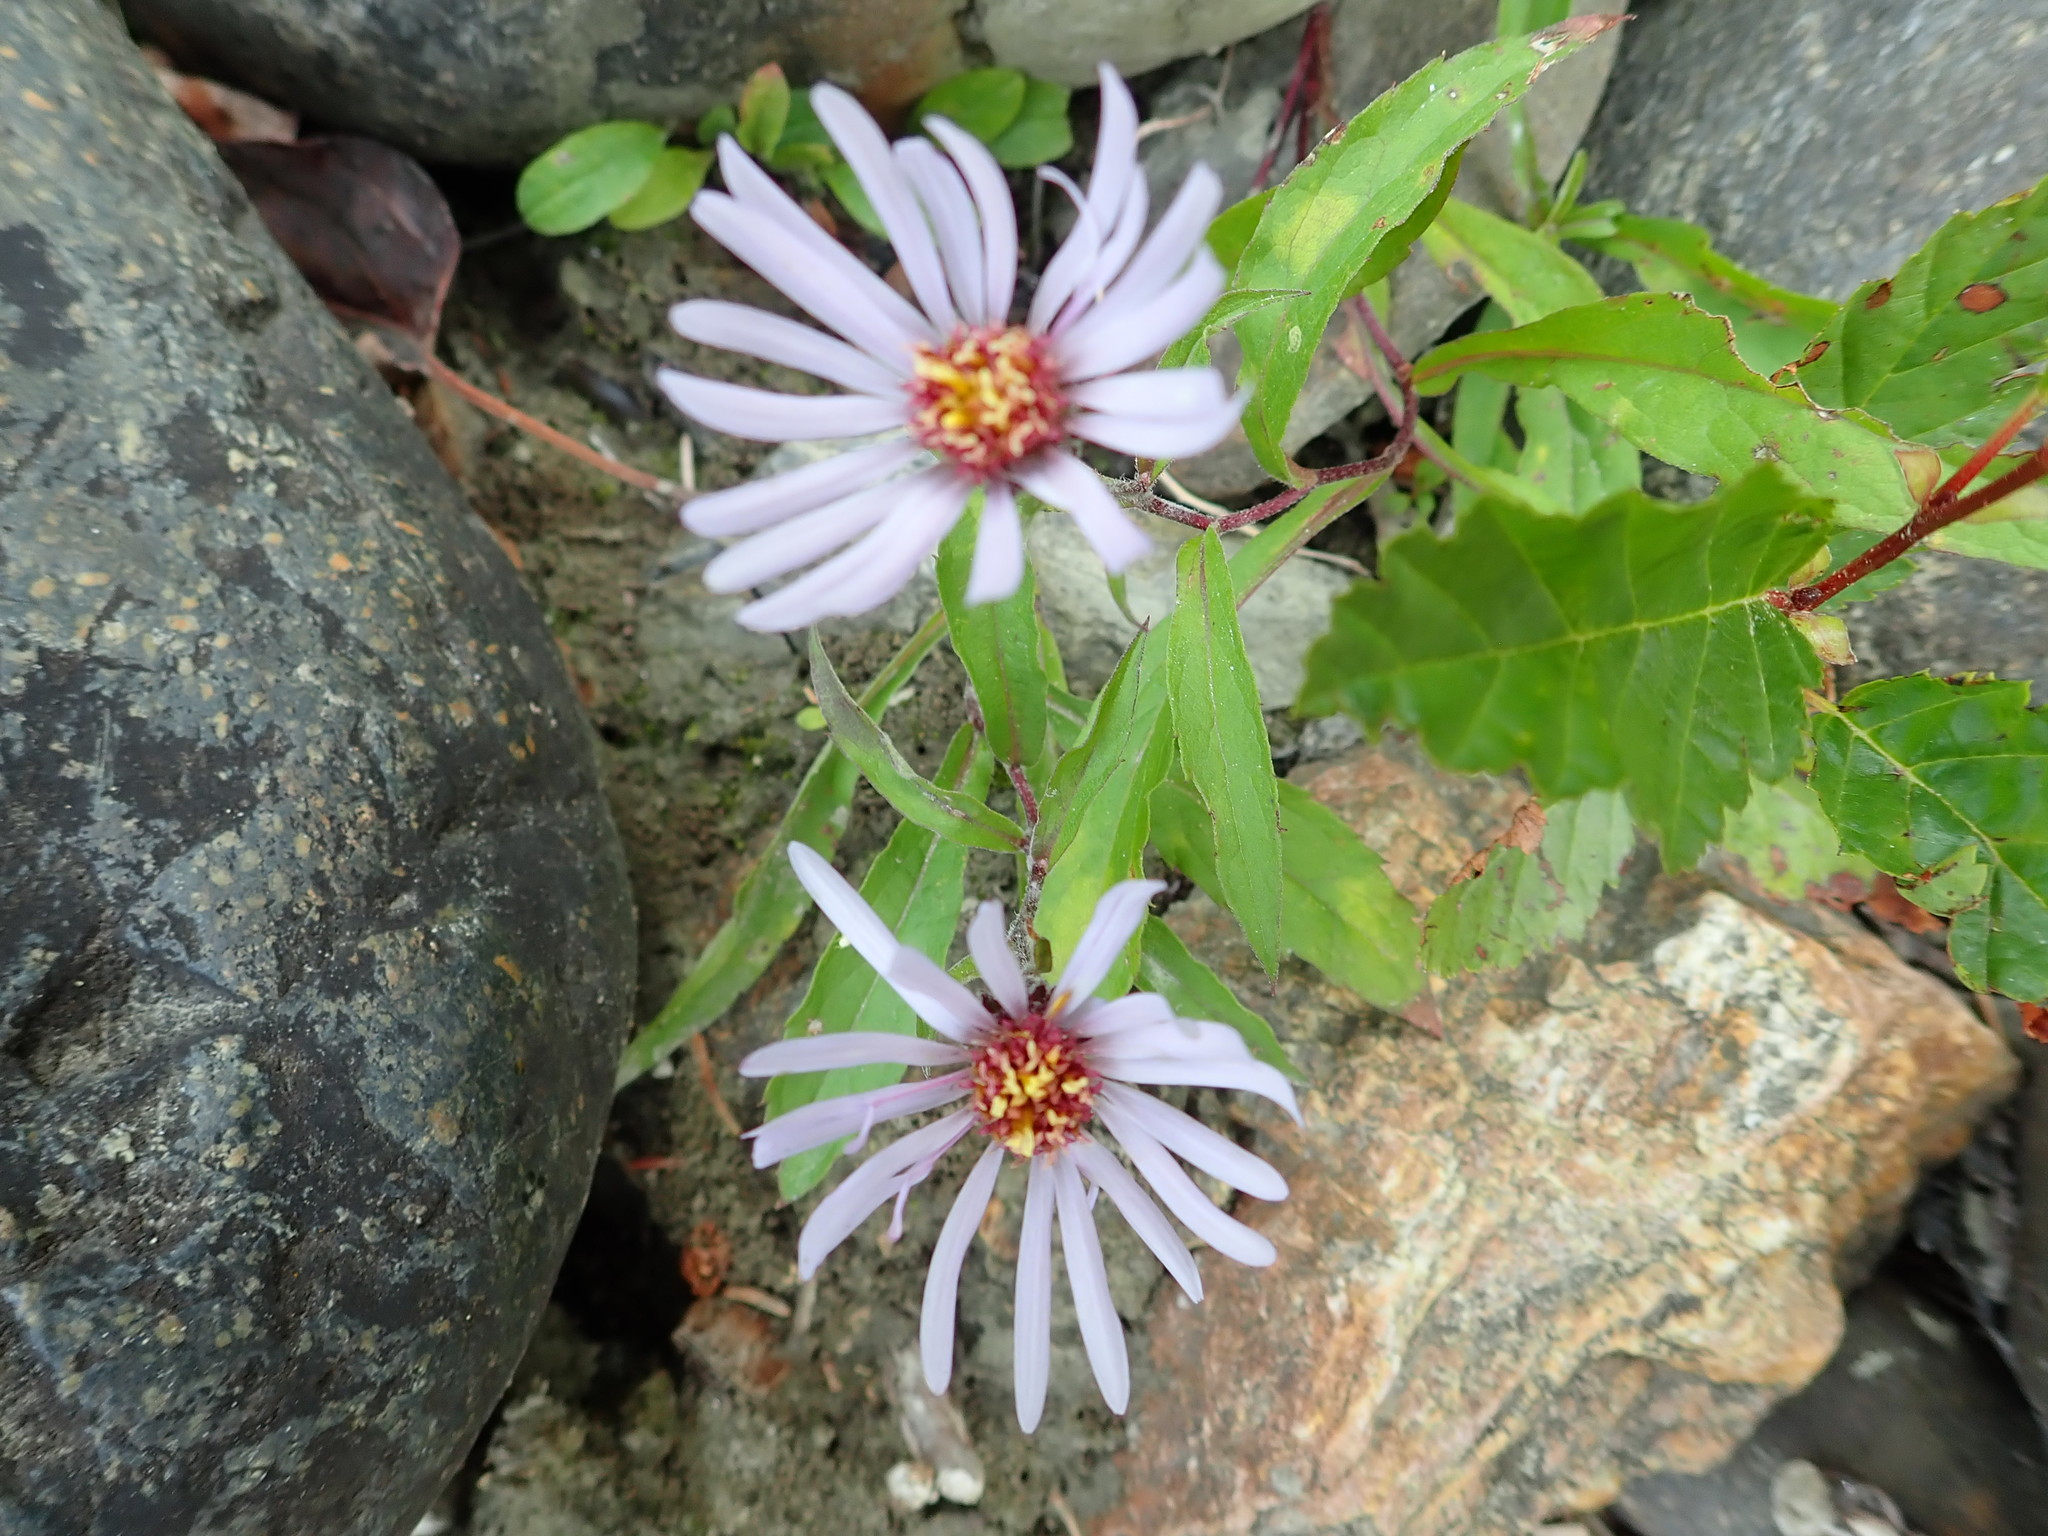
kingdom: Plantae
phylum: Tracheophyta
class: Magnoliopsida
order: Asterales
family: Asteraceae
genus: Eurybia
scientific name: Eurybia sibirica
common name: Arctic aster
